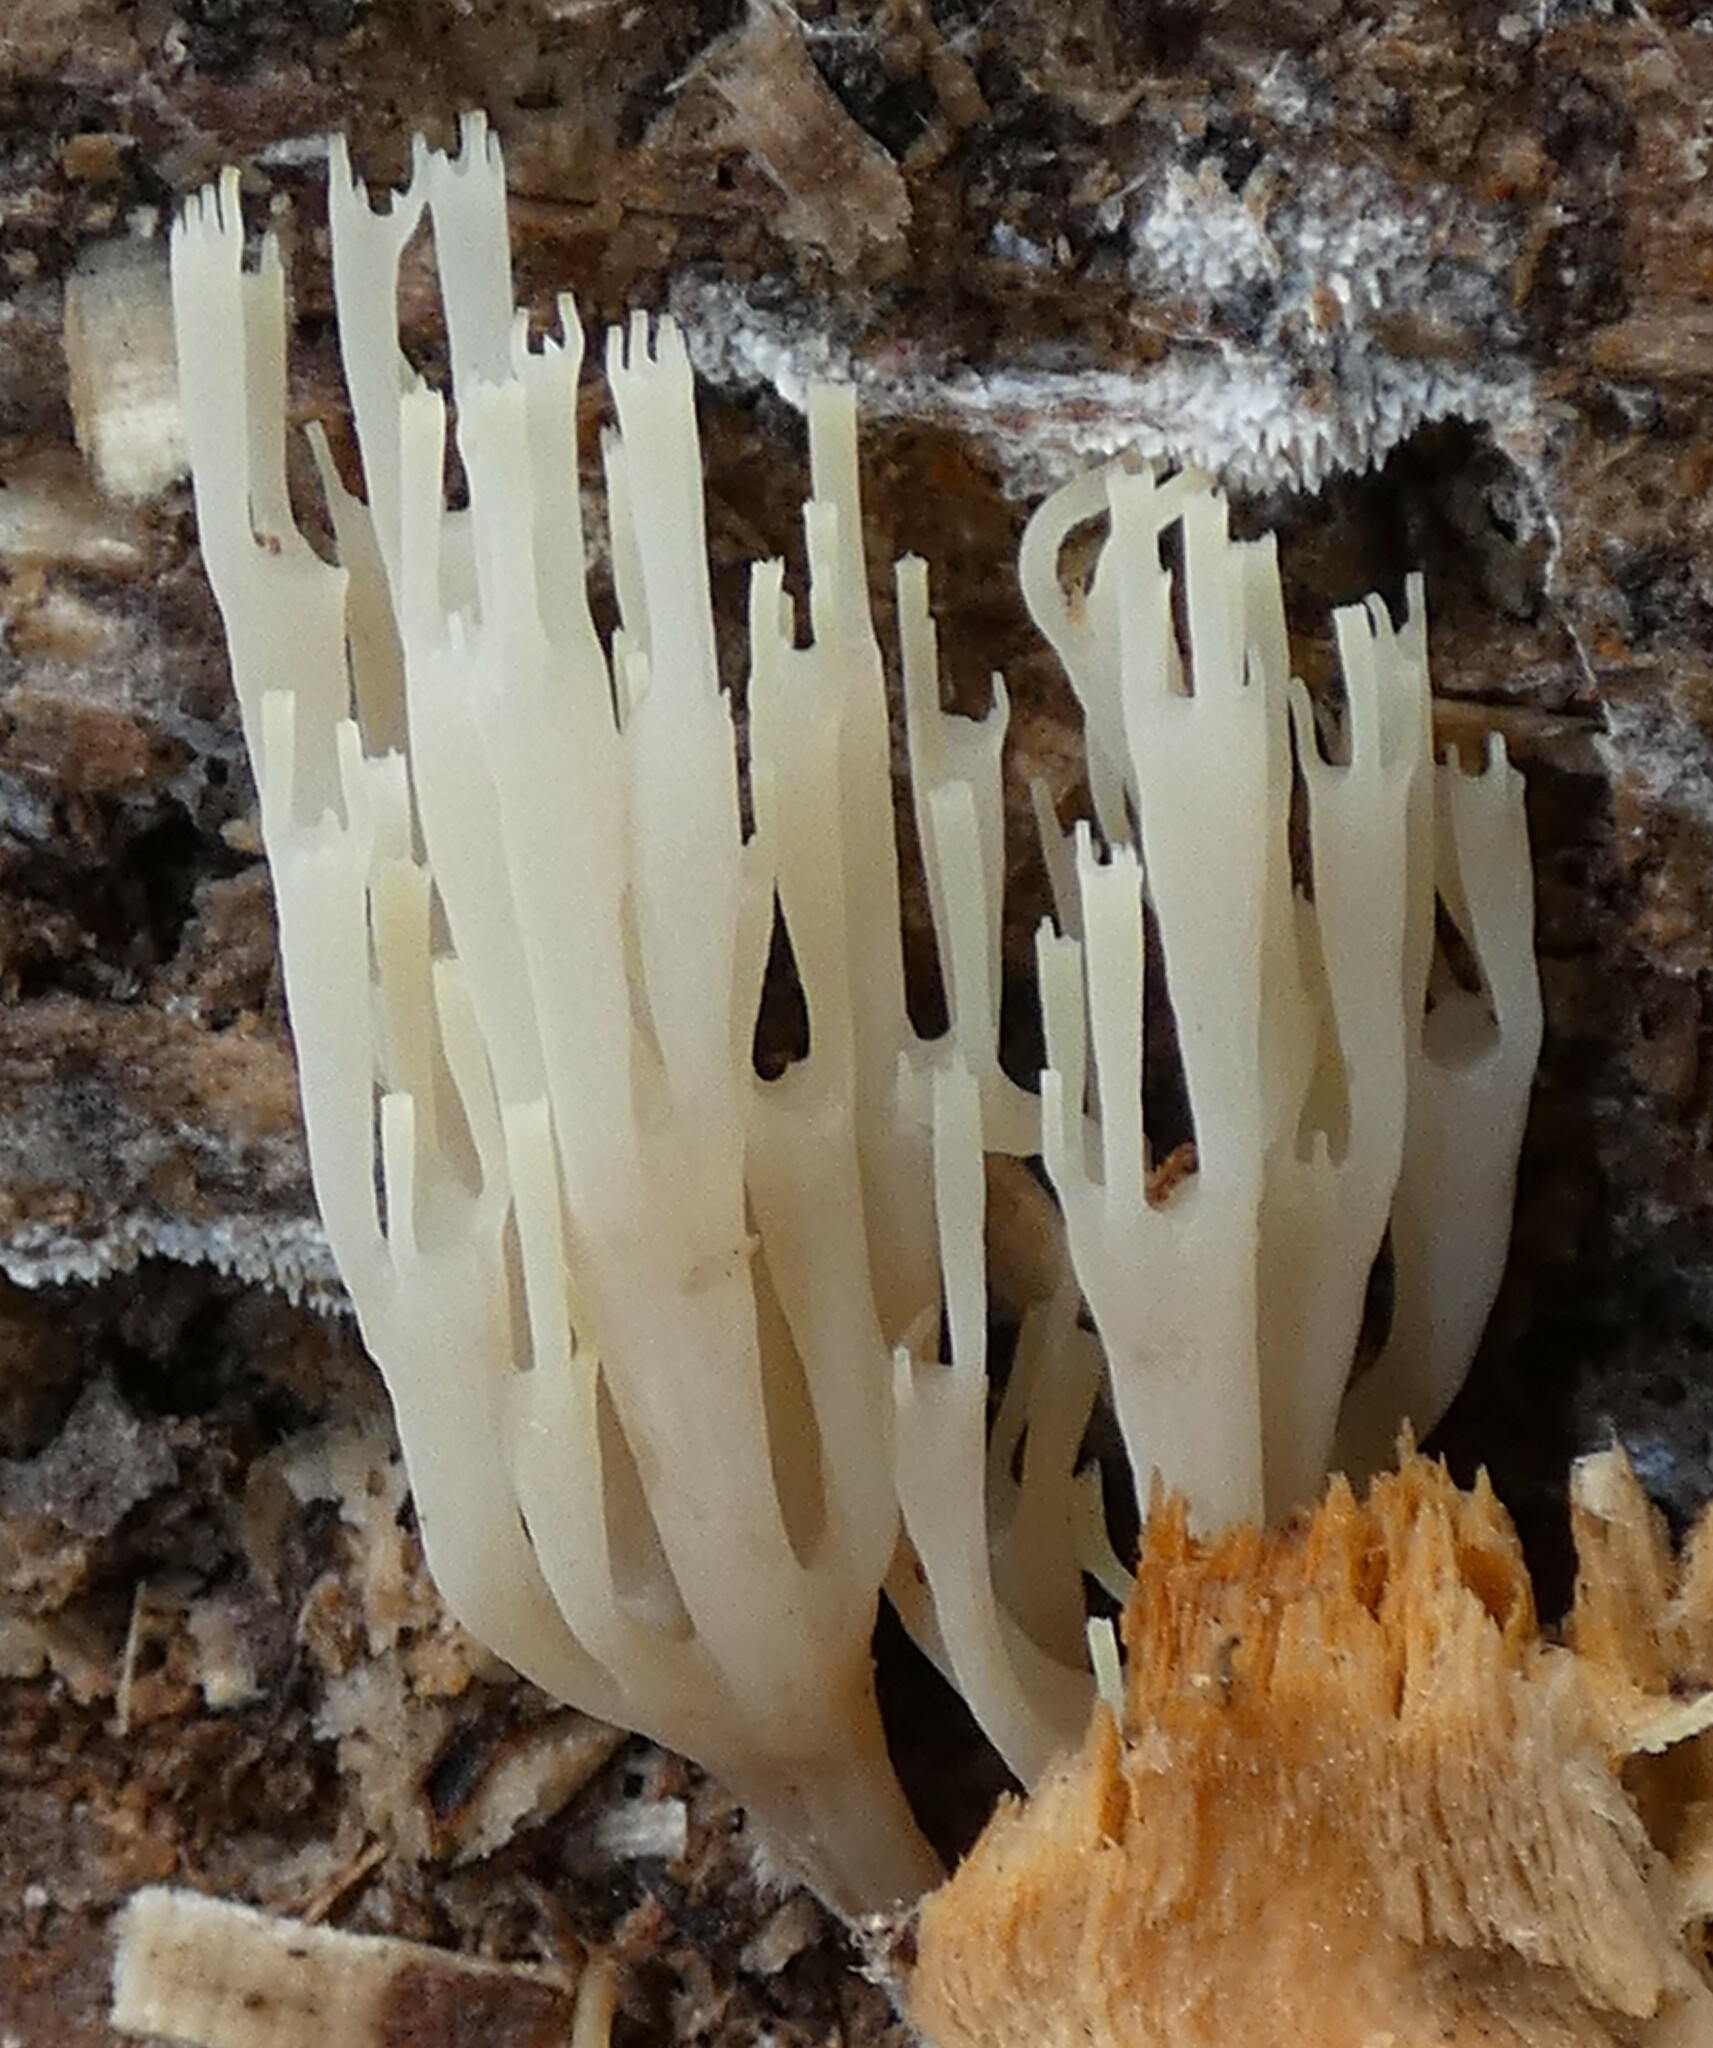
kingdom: Fungi
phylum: Basidiomycota
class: Agaricomycetes
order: Russulales
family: Auriscalpiaceae
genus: Artomyces
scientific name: Artomyces pyxidatus
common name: Crown-tipped coral fungus
